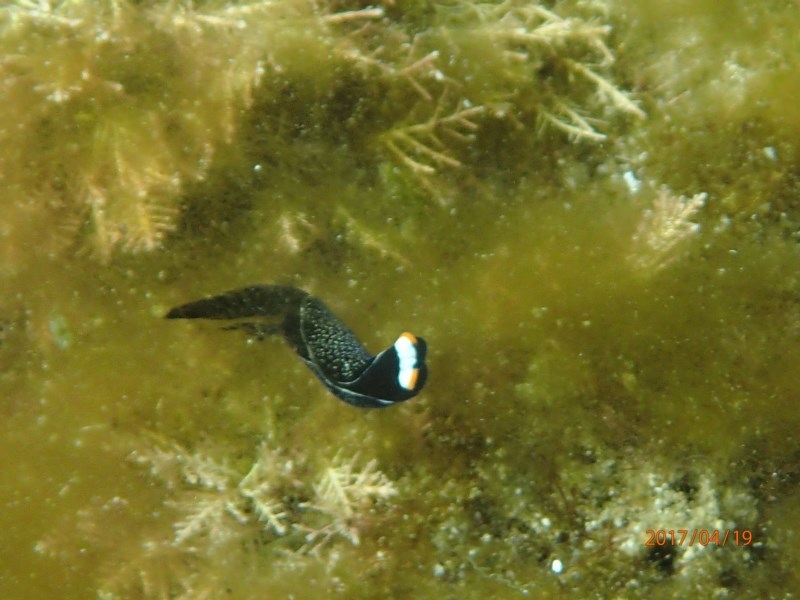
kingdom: Animalia
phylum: Mollusca
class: Gastropoda
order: Cephalaspidea
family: Aglajidae
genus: Mariaglaja
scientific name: Mariaglaja inornata
